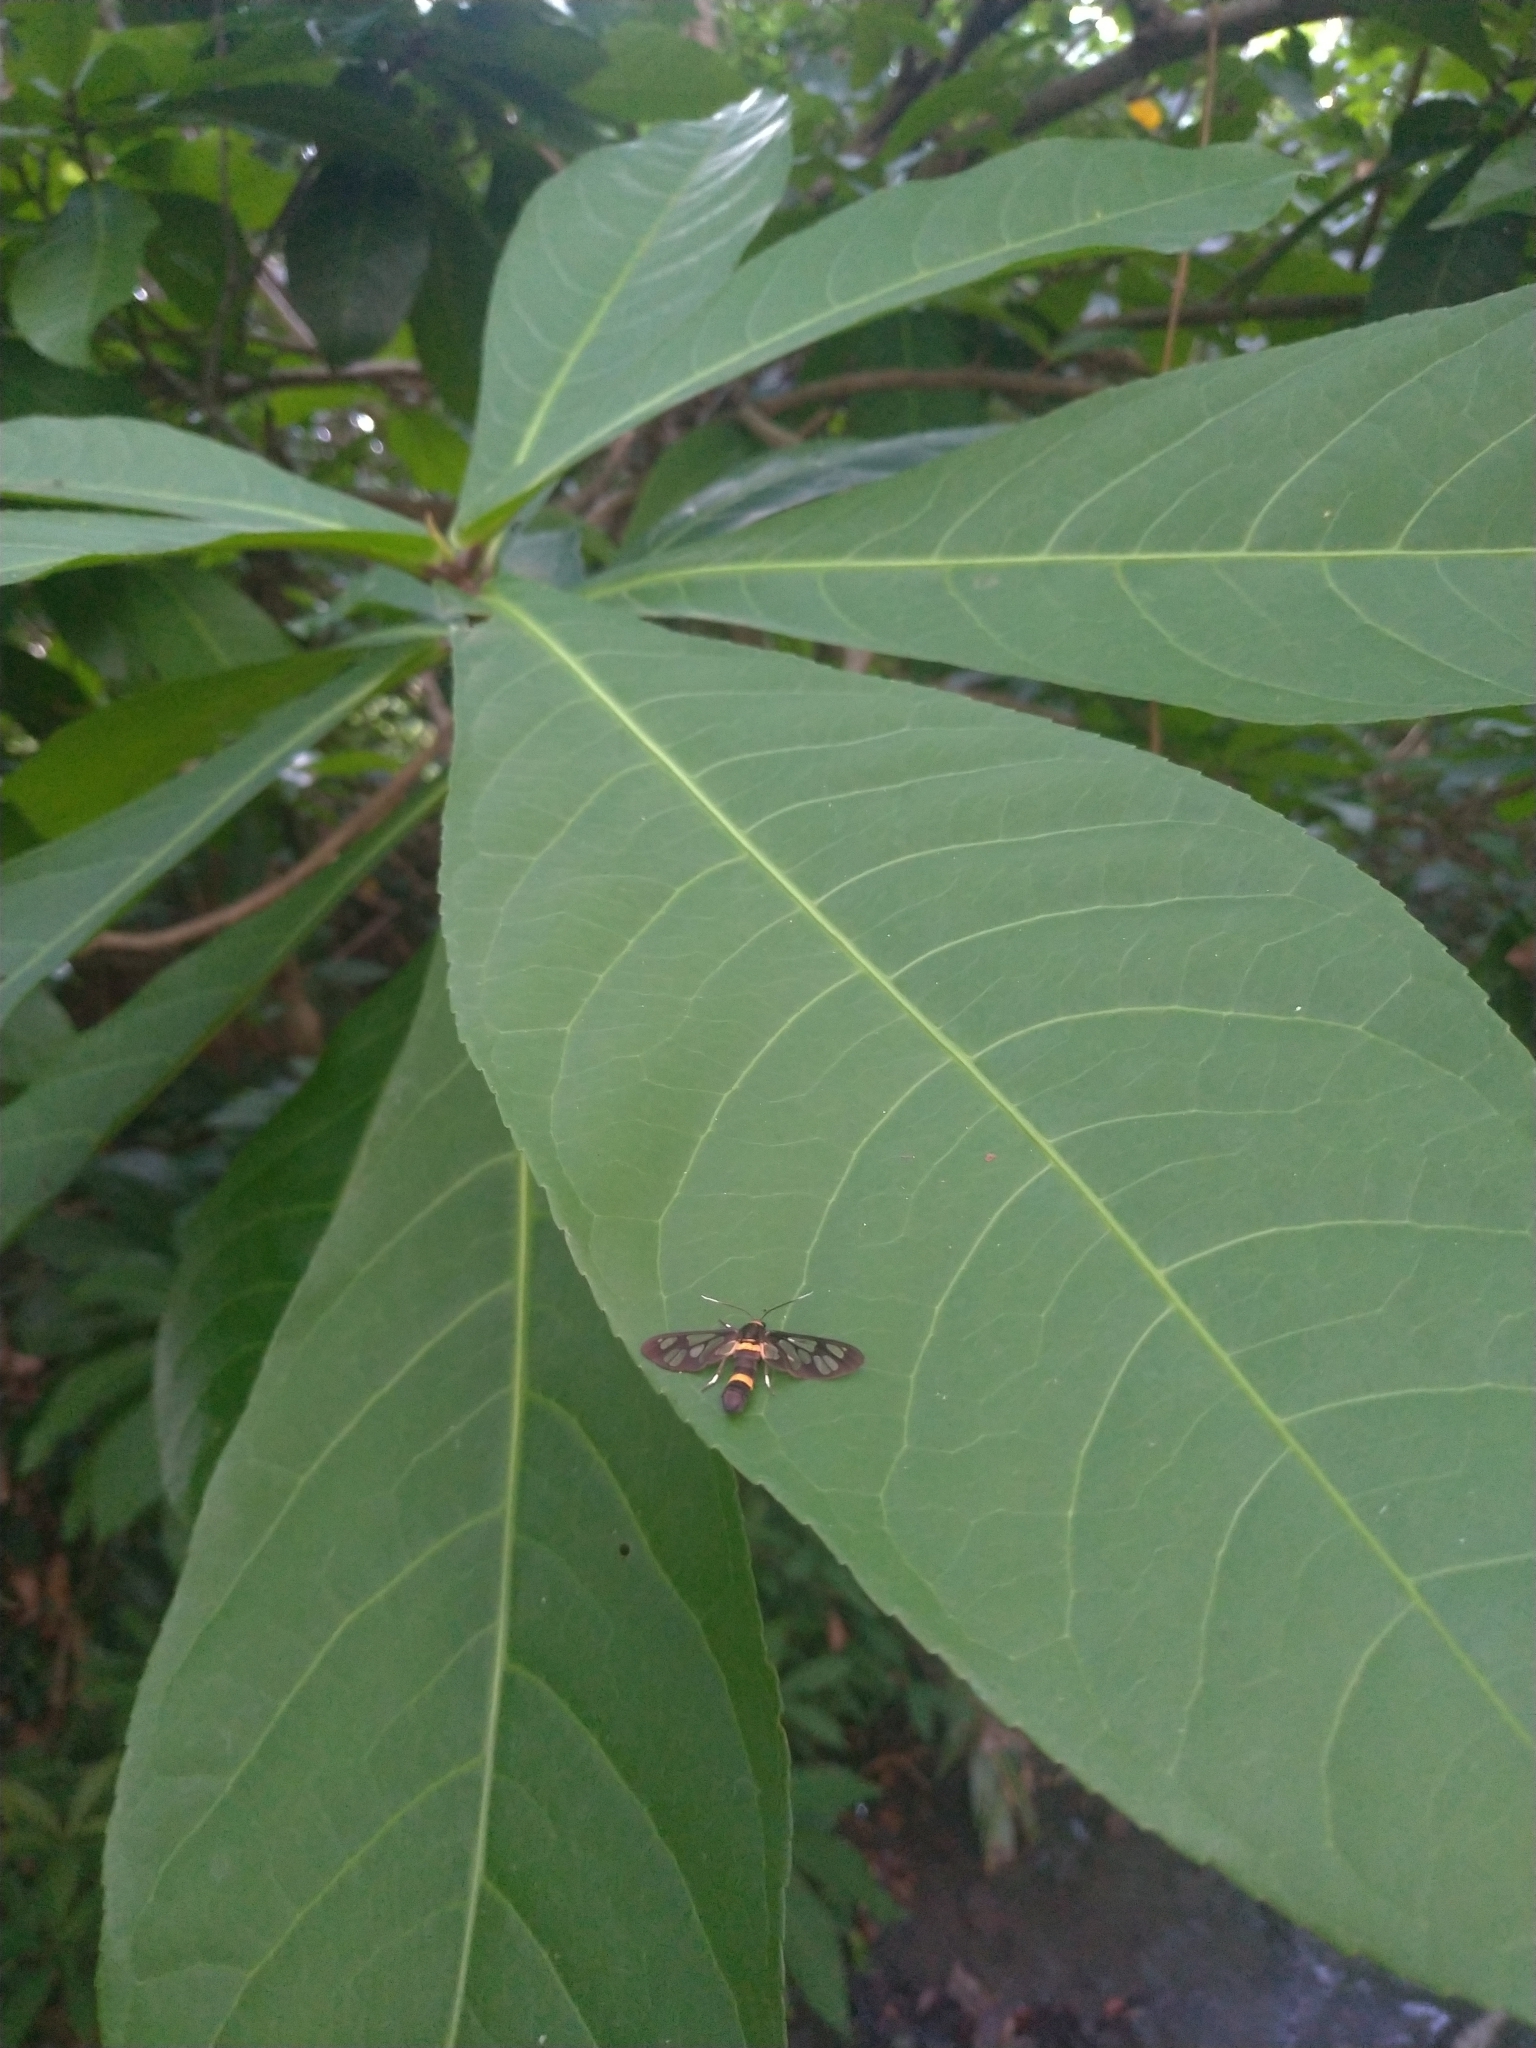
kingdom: Animalia
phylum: Arthropoda
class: Insecta
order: Lepidoptera
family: Erebidae
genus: Syntomoides
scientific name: Syntomoides imaon
